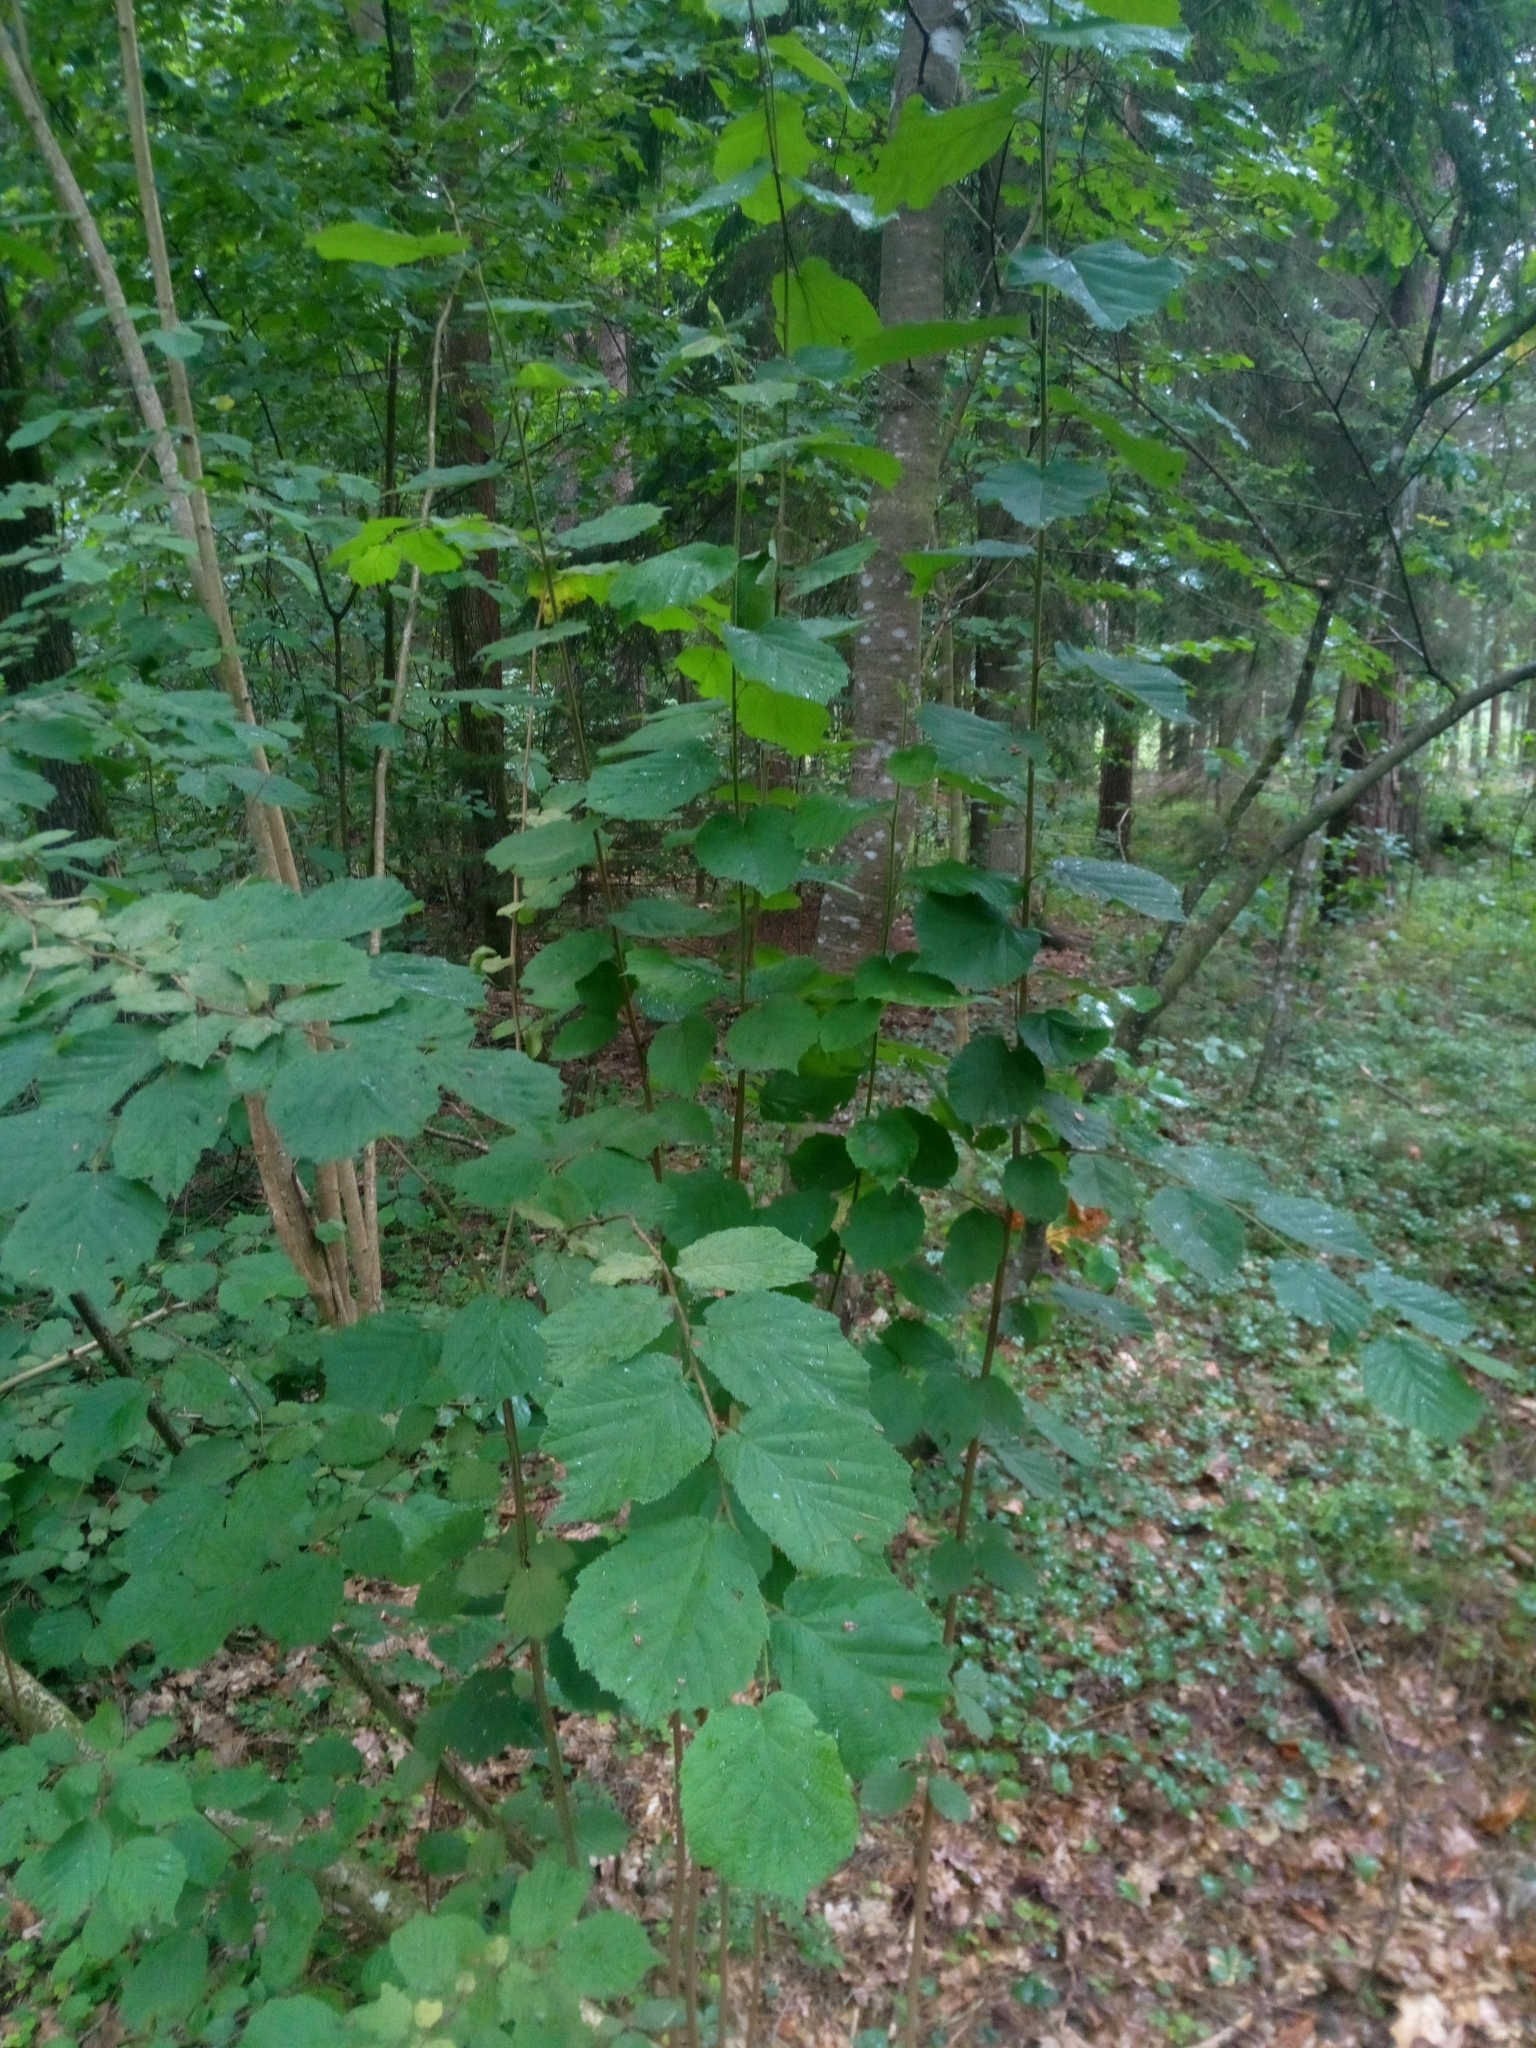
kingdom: Plantae
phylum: Tracheophyta
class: Magnoliopsida
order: Fagales
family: Betulaceae
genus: Corylus
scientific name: Corylus avellana
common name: European hazel
